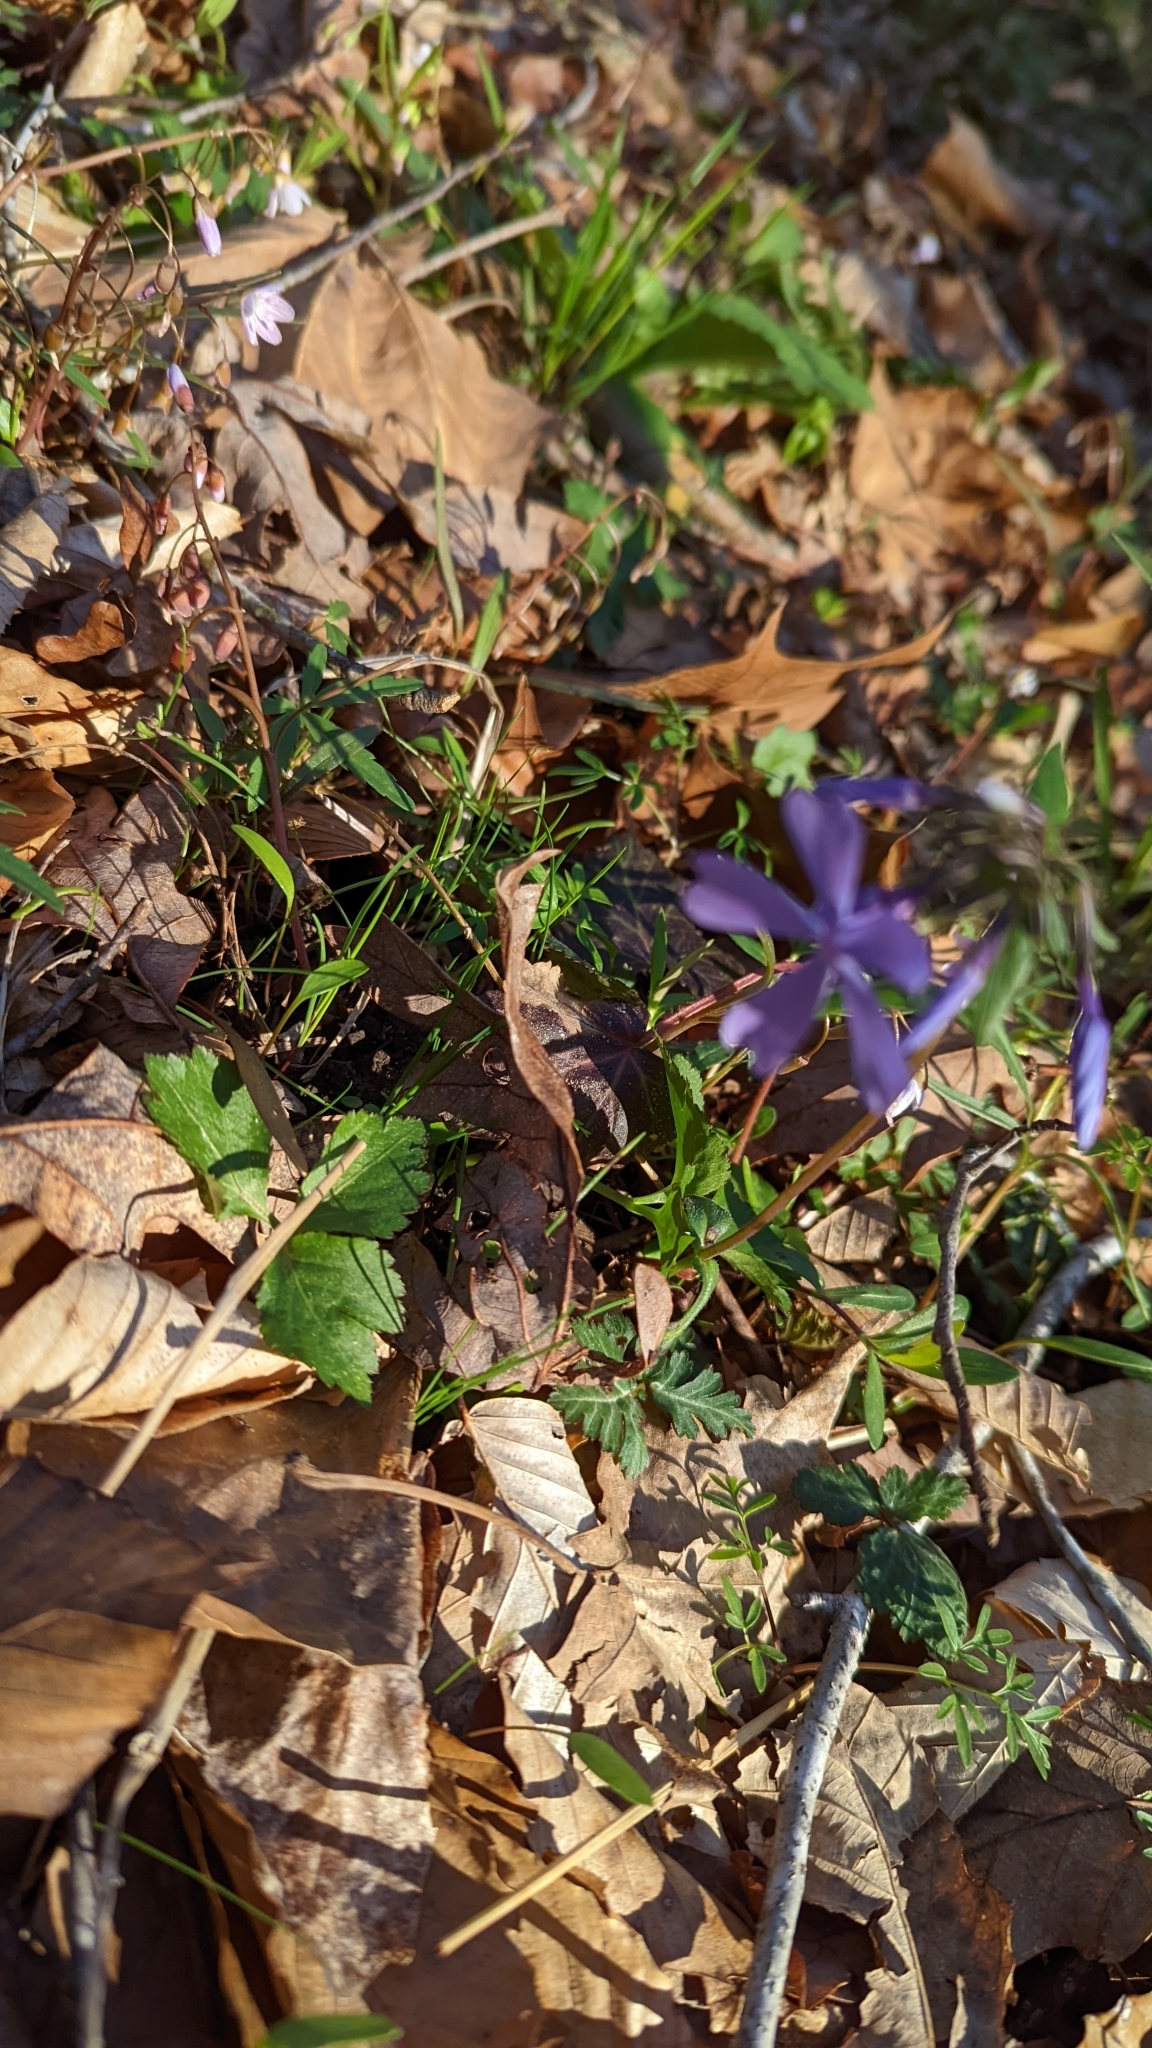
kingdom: Plantae
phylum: Tracheophyta
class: Magnoliopsida
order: Ericales
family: Polemoniaceae
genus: Phlox
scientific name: Phlox divaricata
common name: Blue phlox
